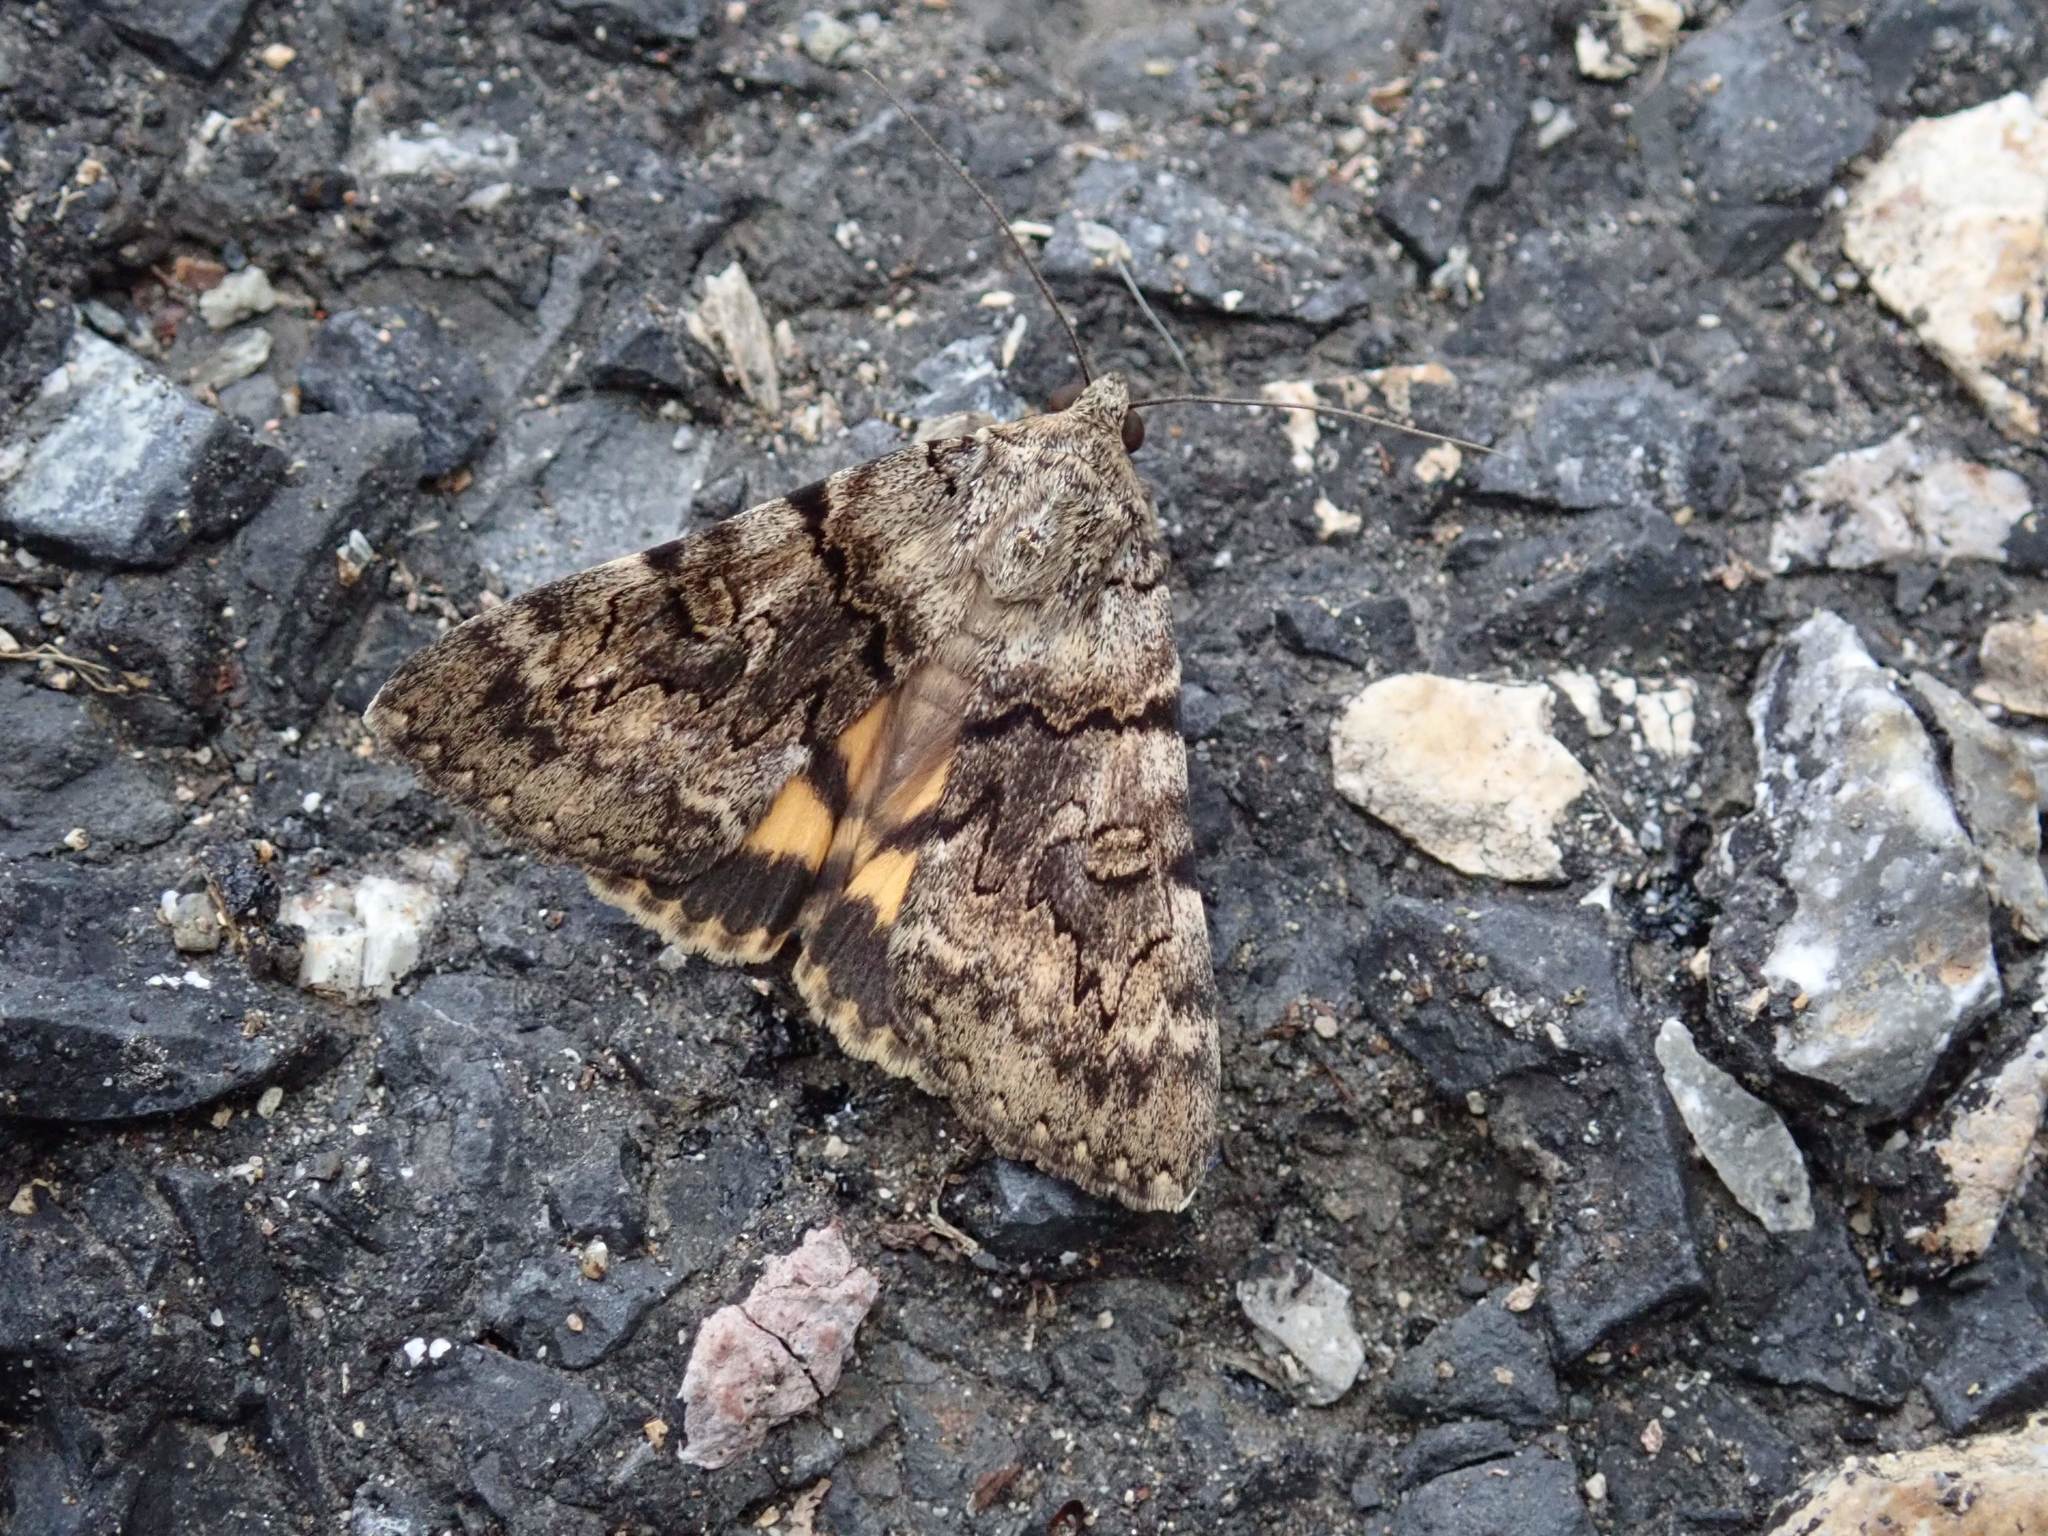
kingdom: Animalia
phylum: Arthropoda
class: Insecta
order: Lepidoptera
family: Erebidae
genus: Catocala
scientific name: Catocala nymphagoga
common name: Oak yellow underwing
